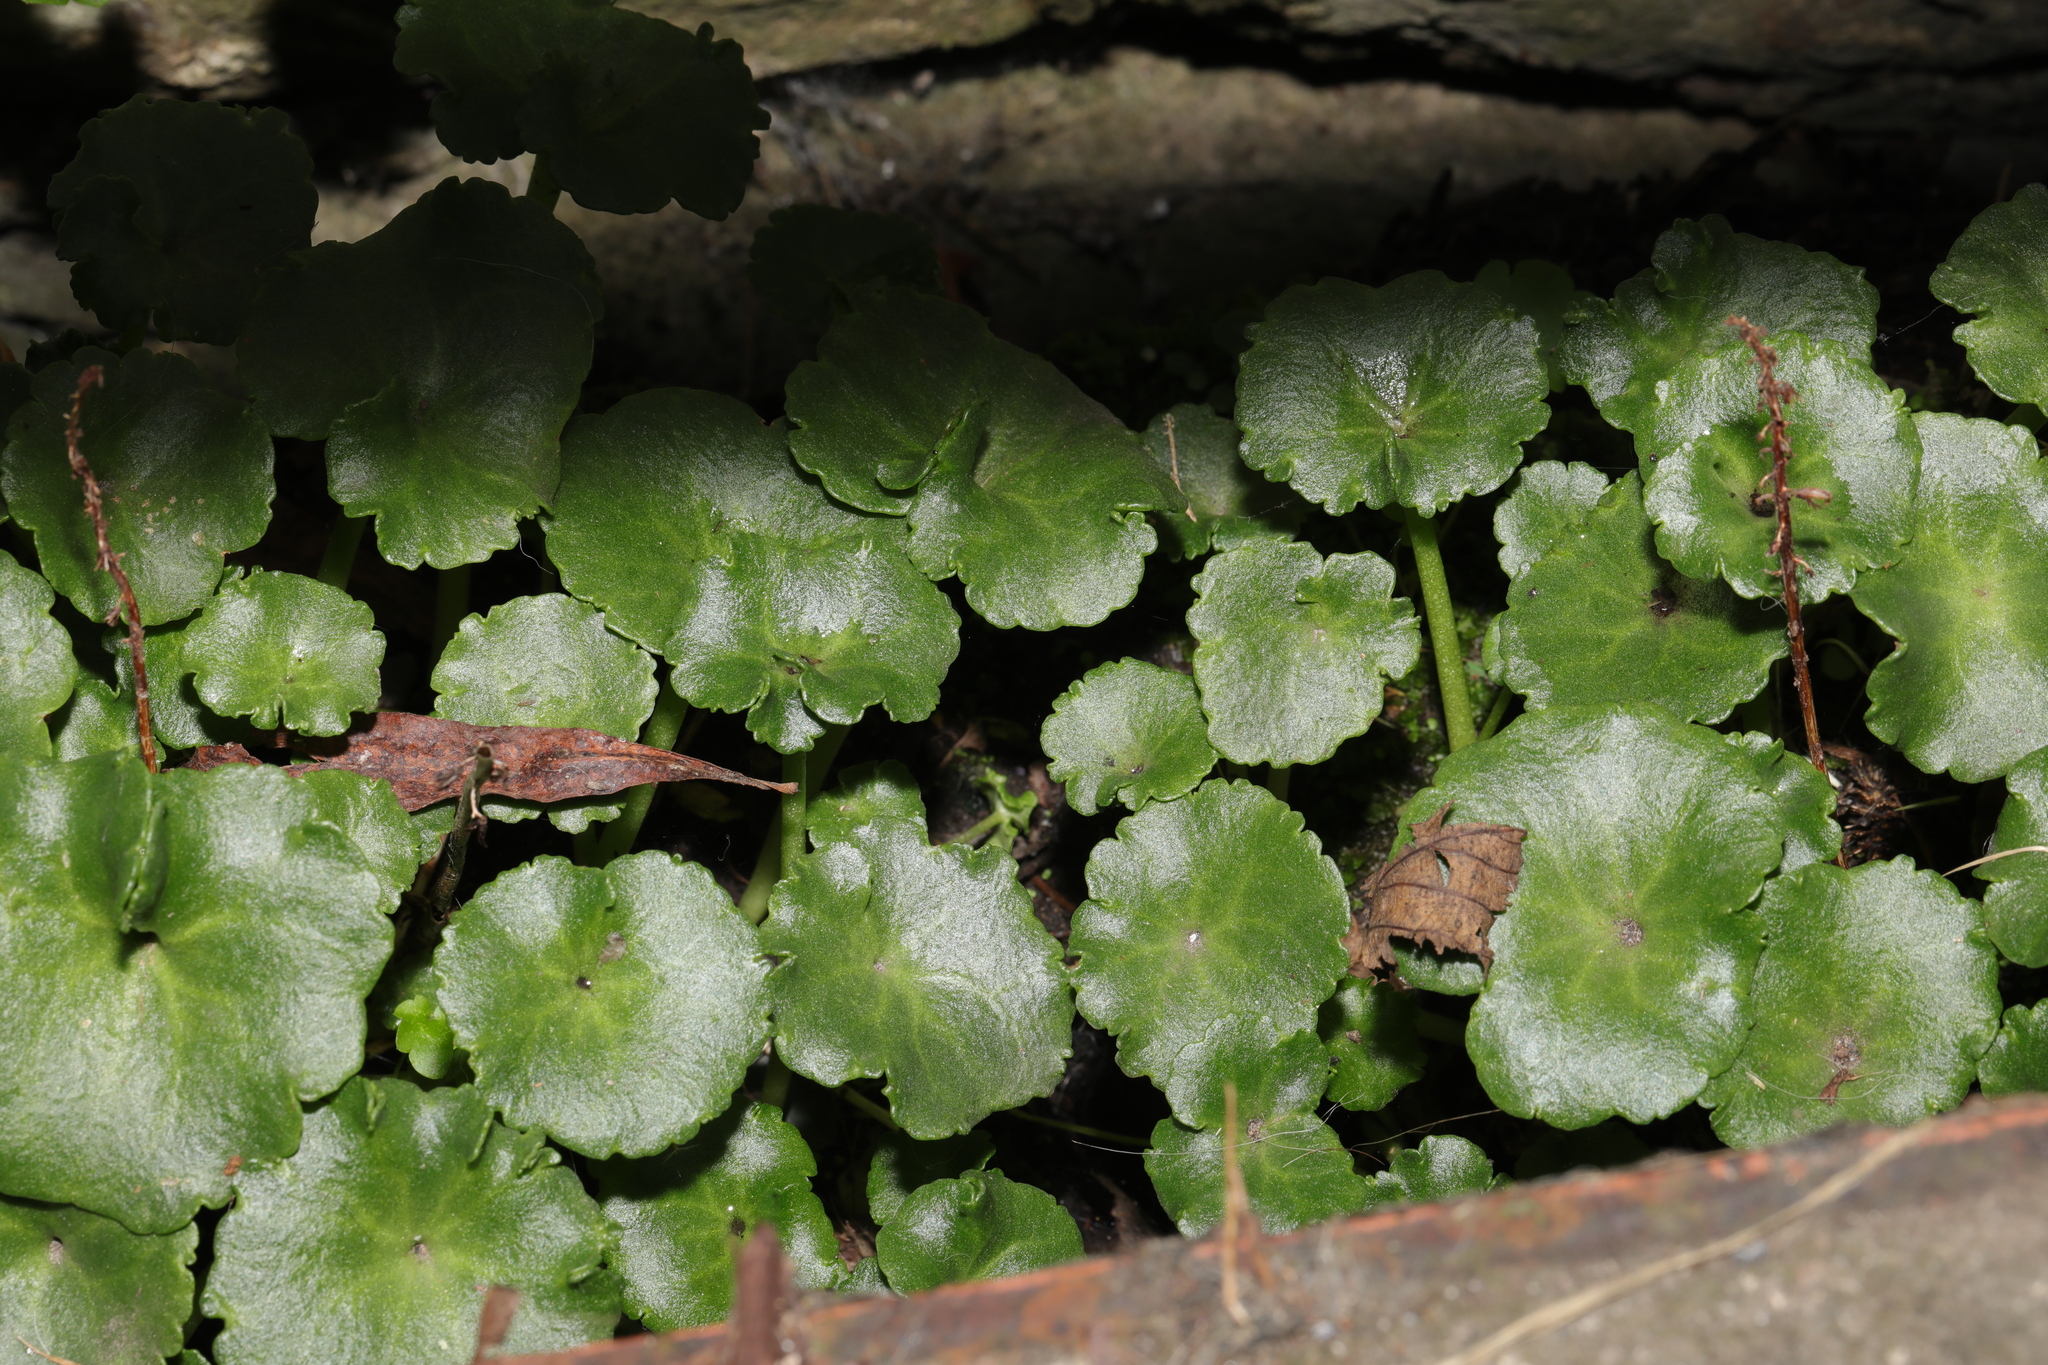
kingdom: Plantae
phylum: Tracheophyta
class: Magnoliopsida
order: Saxifragales
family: Crassulaceae
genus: Umbilicus
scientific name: Umbilicus rupestris
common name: Navelwort
